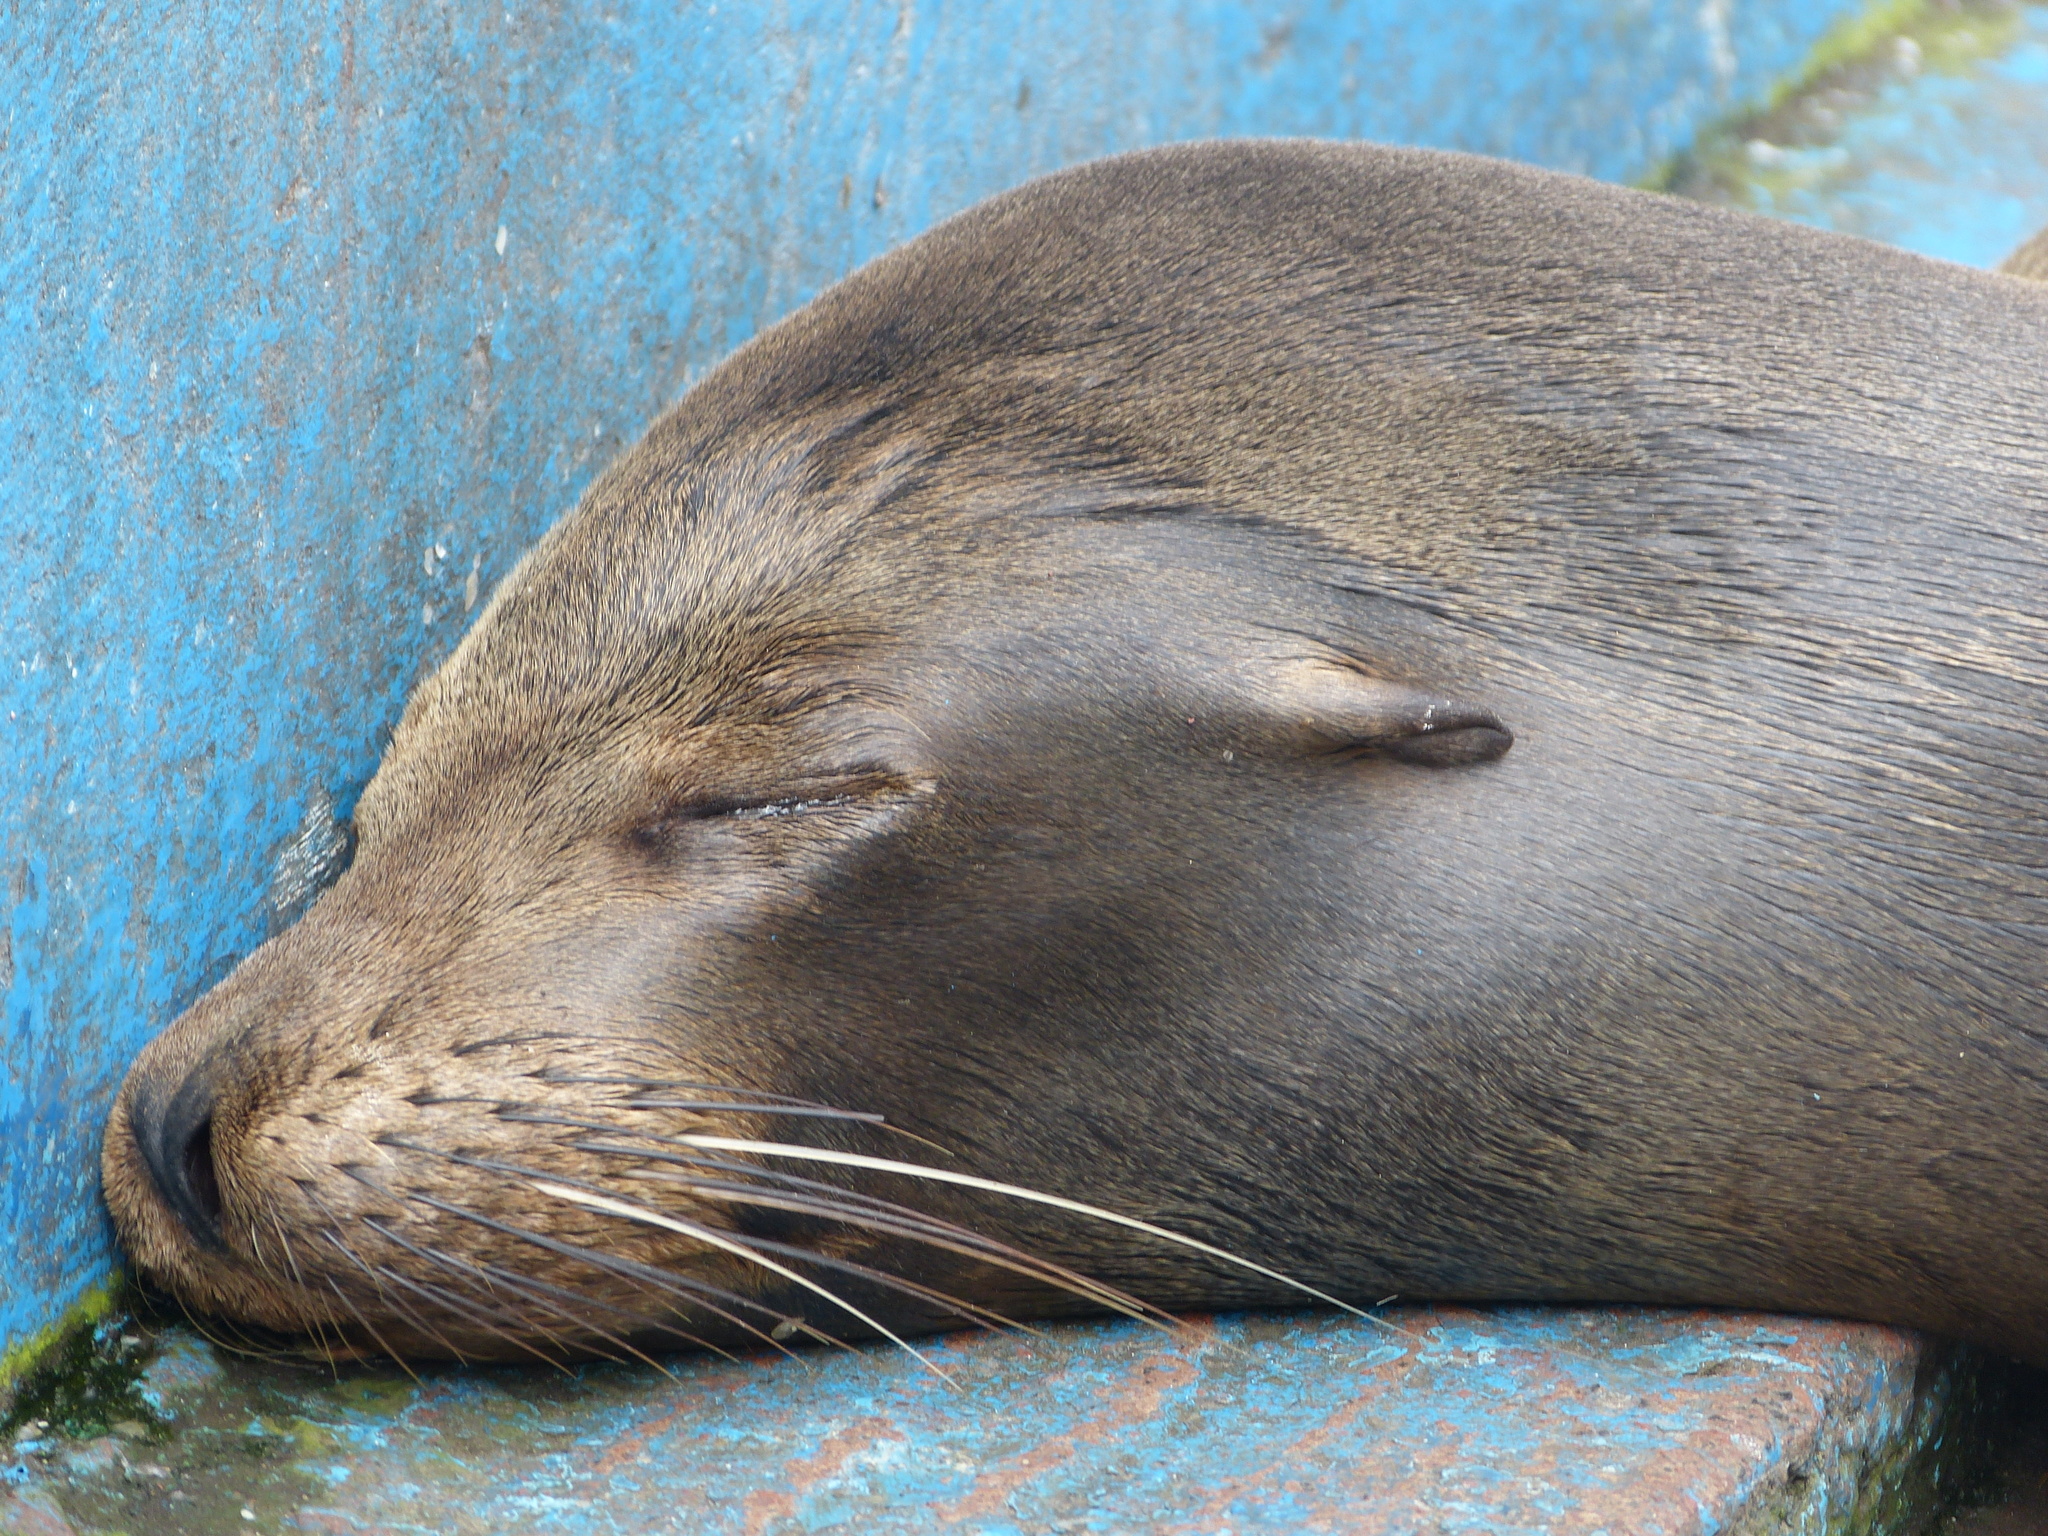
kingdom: Animalia
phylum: Chordata
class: Mammalia
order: Carnivora
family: Otariidae
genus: Zalophus
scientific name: Zalophus wollebaeki
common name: Galapagos sea lion
